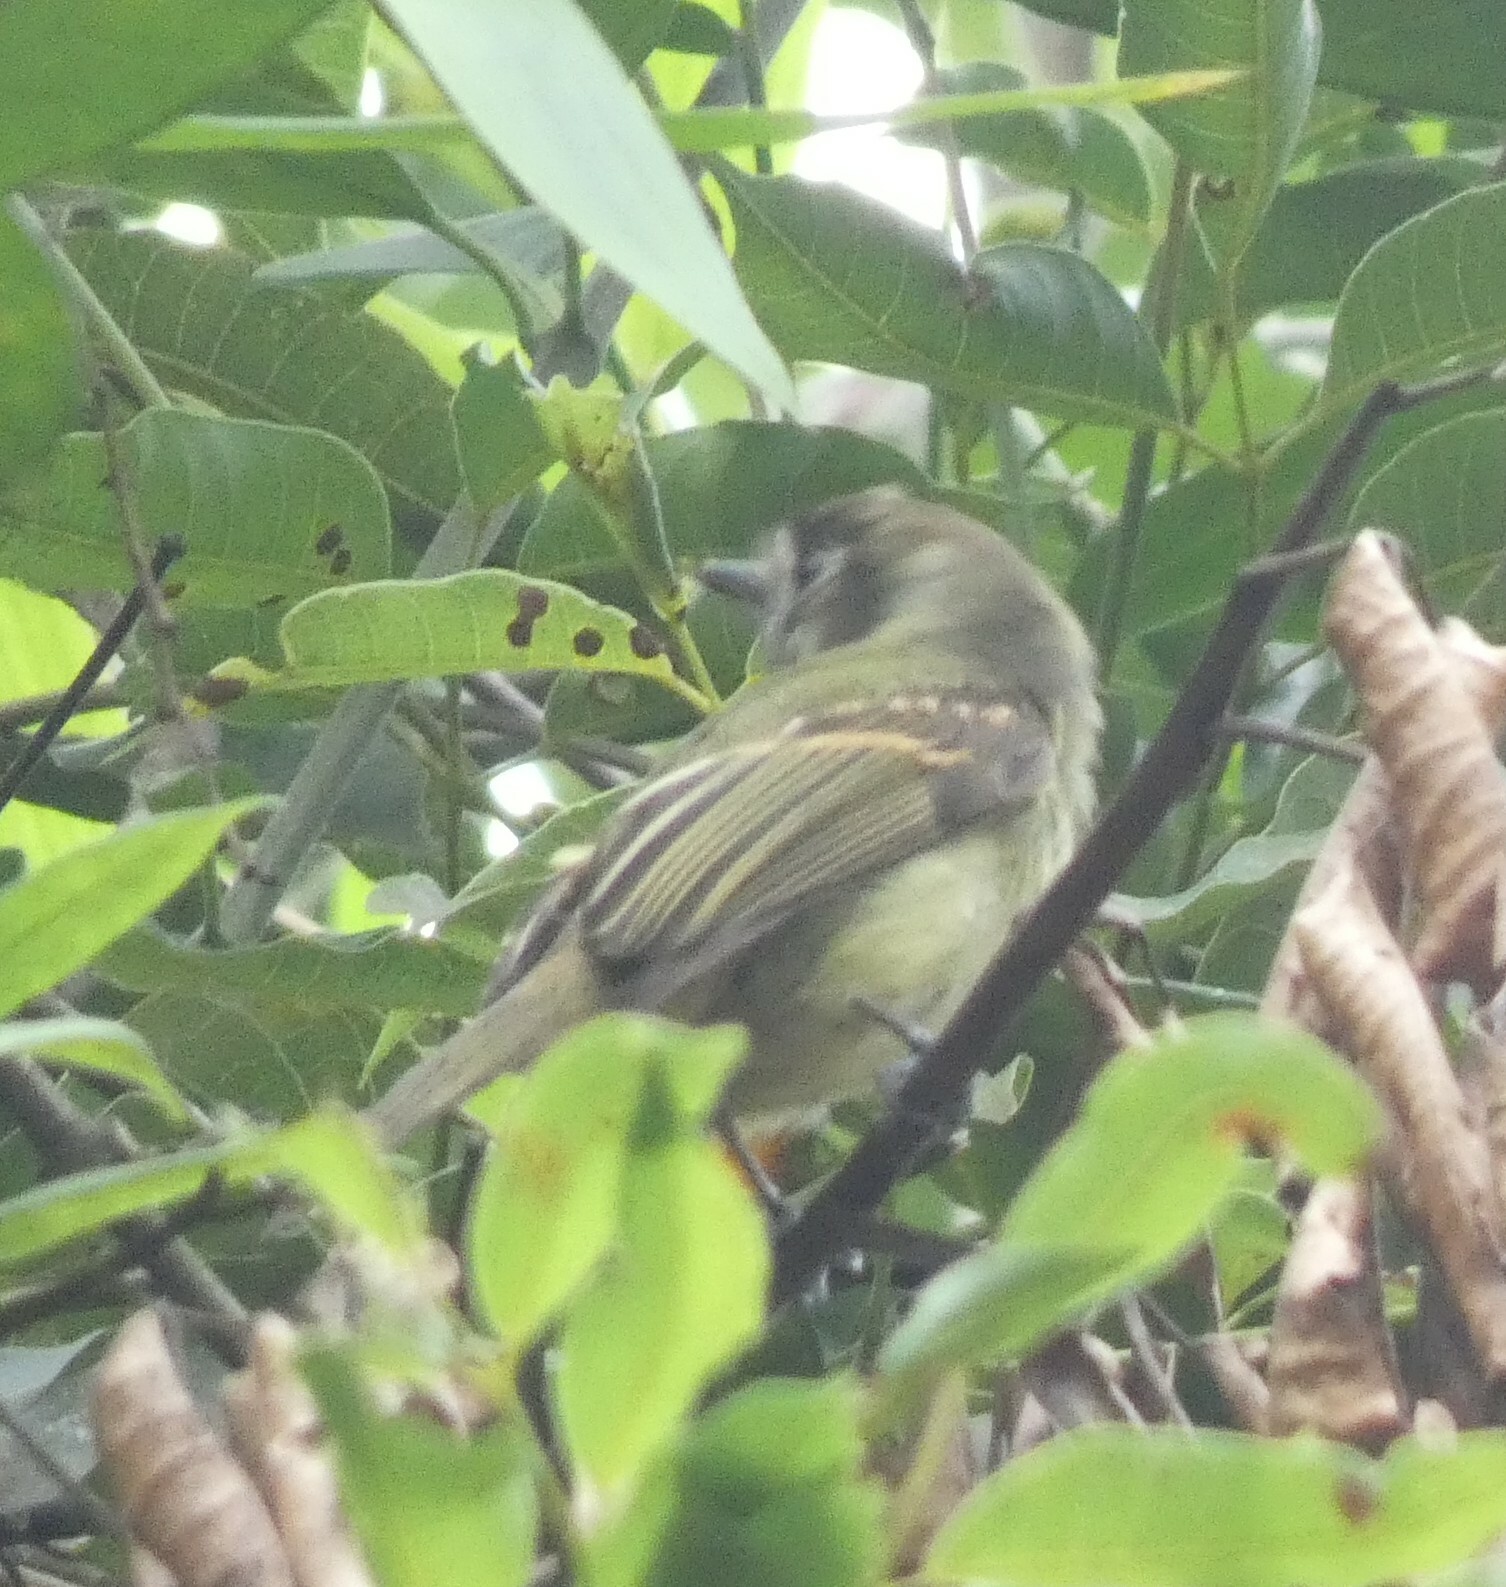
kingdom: Animalia
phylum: Chordata
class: Aves
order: Passeriformes
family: Tyrannidae
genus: Leptopogon
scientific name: Leptopogon amaurocephalus
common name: Sepia-capped flycatcher
